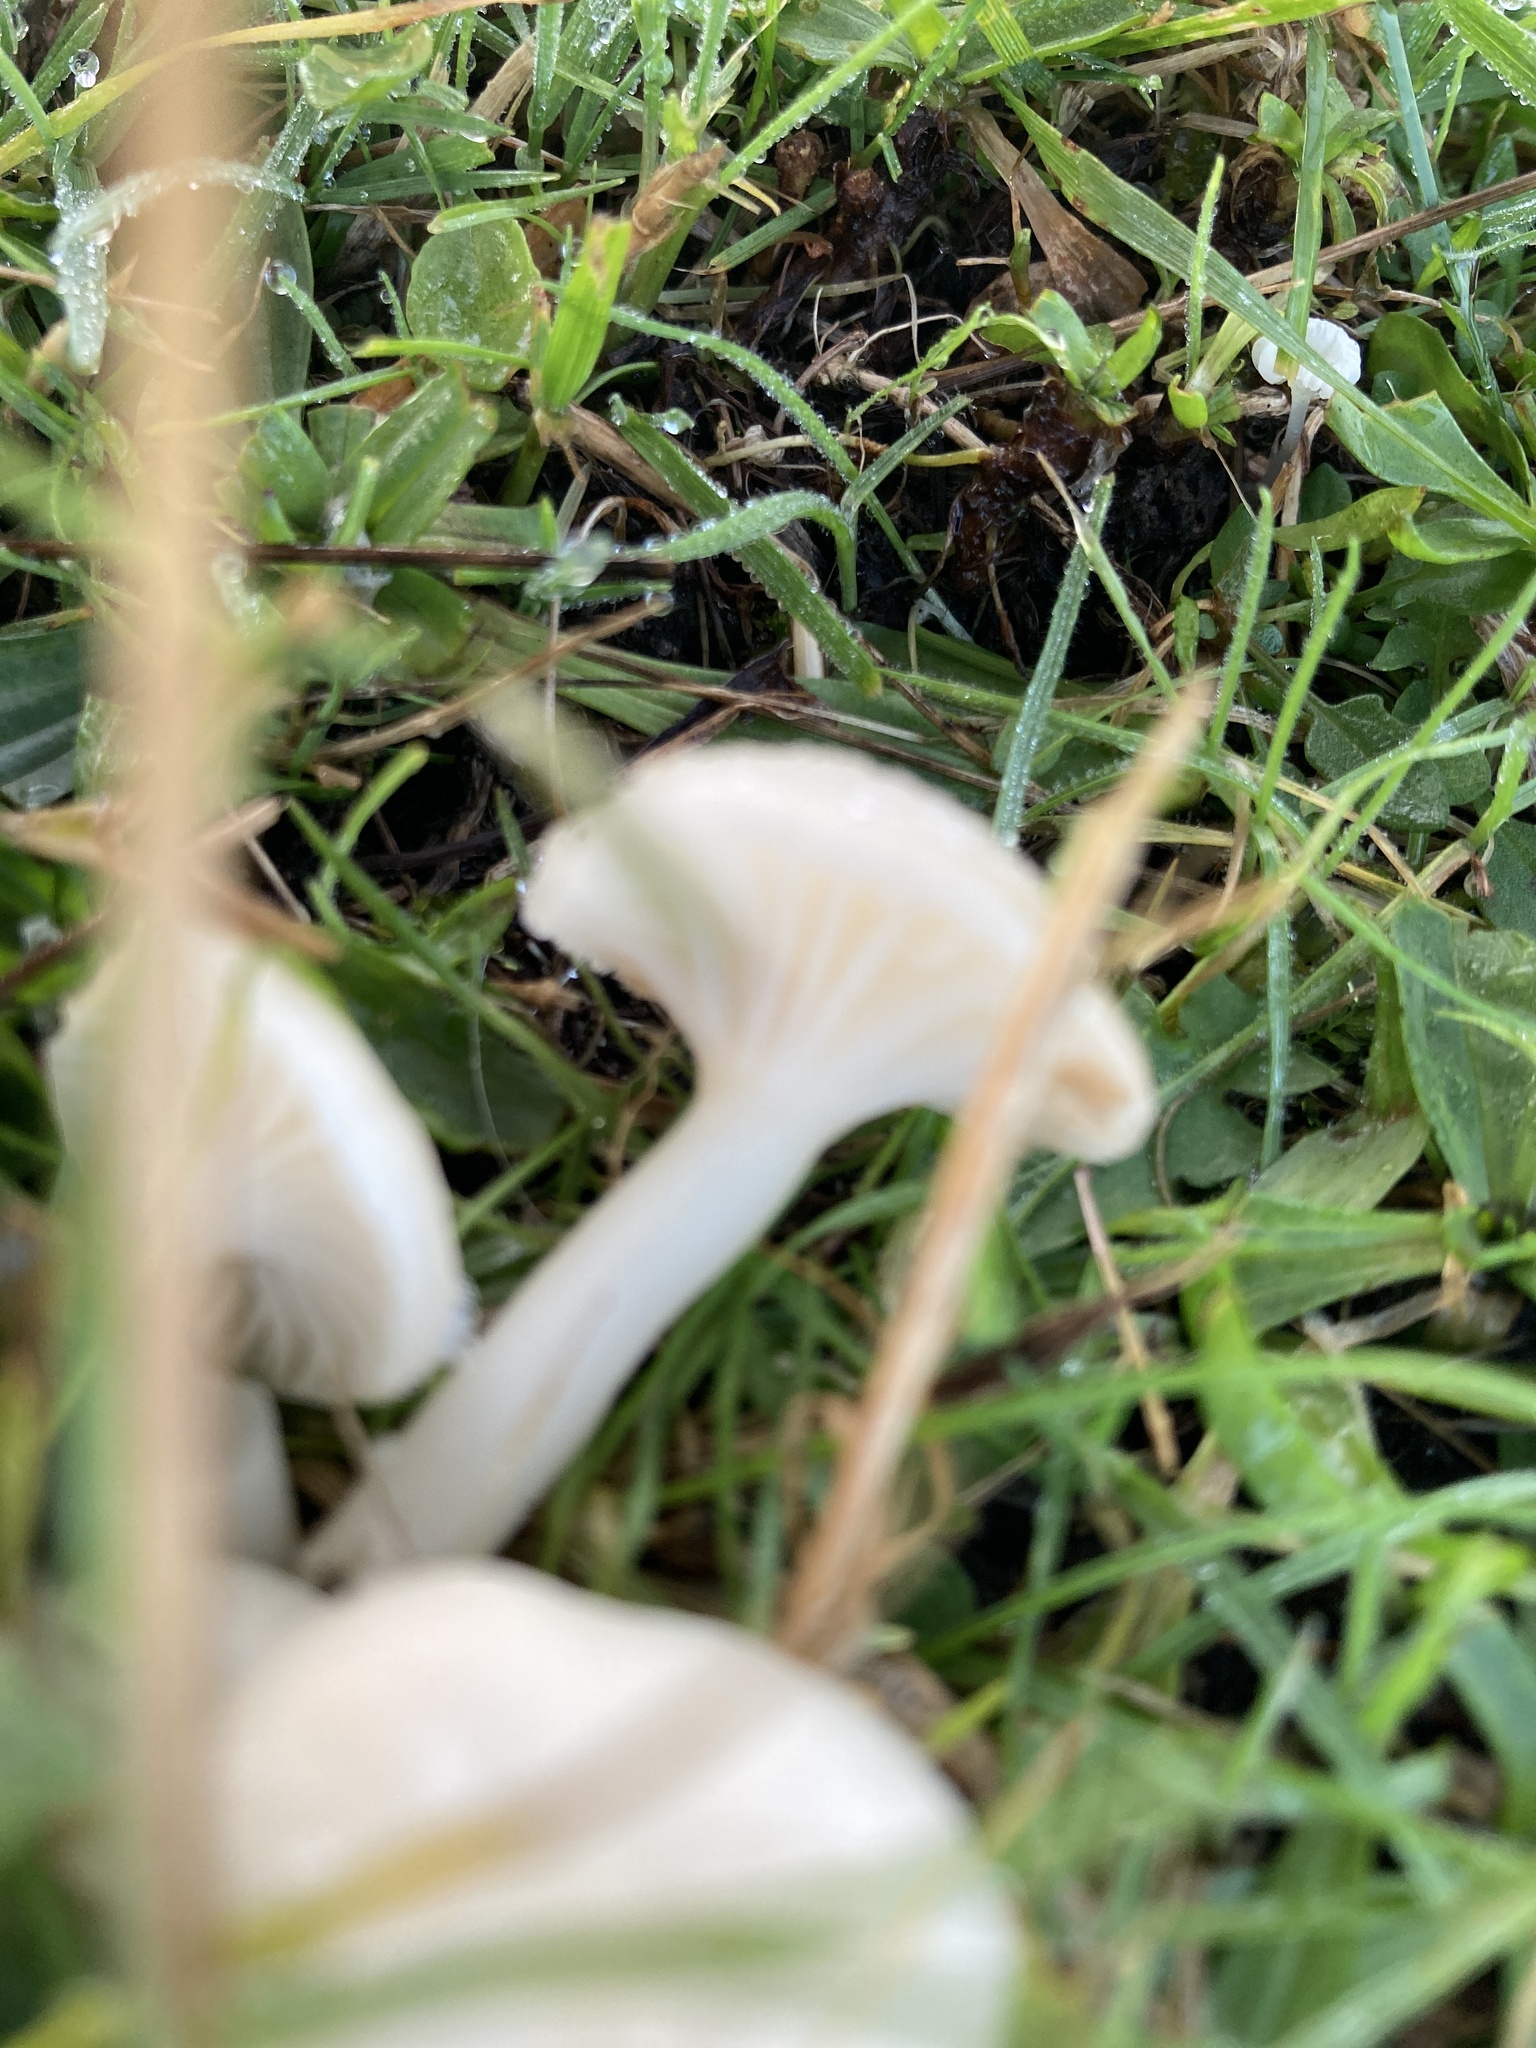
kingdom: Fungi
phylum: Basidiomycota
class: Agaricomycetes
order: Agaricales
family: Hygrophoraceae
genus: Cuphophyllus
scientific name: Cuphophyllus virgineus
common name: Snowy waxcap
